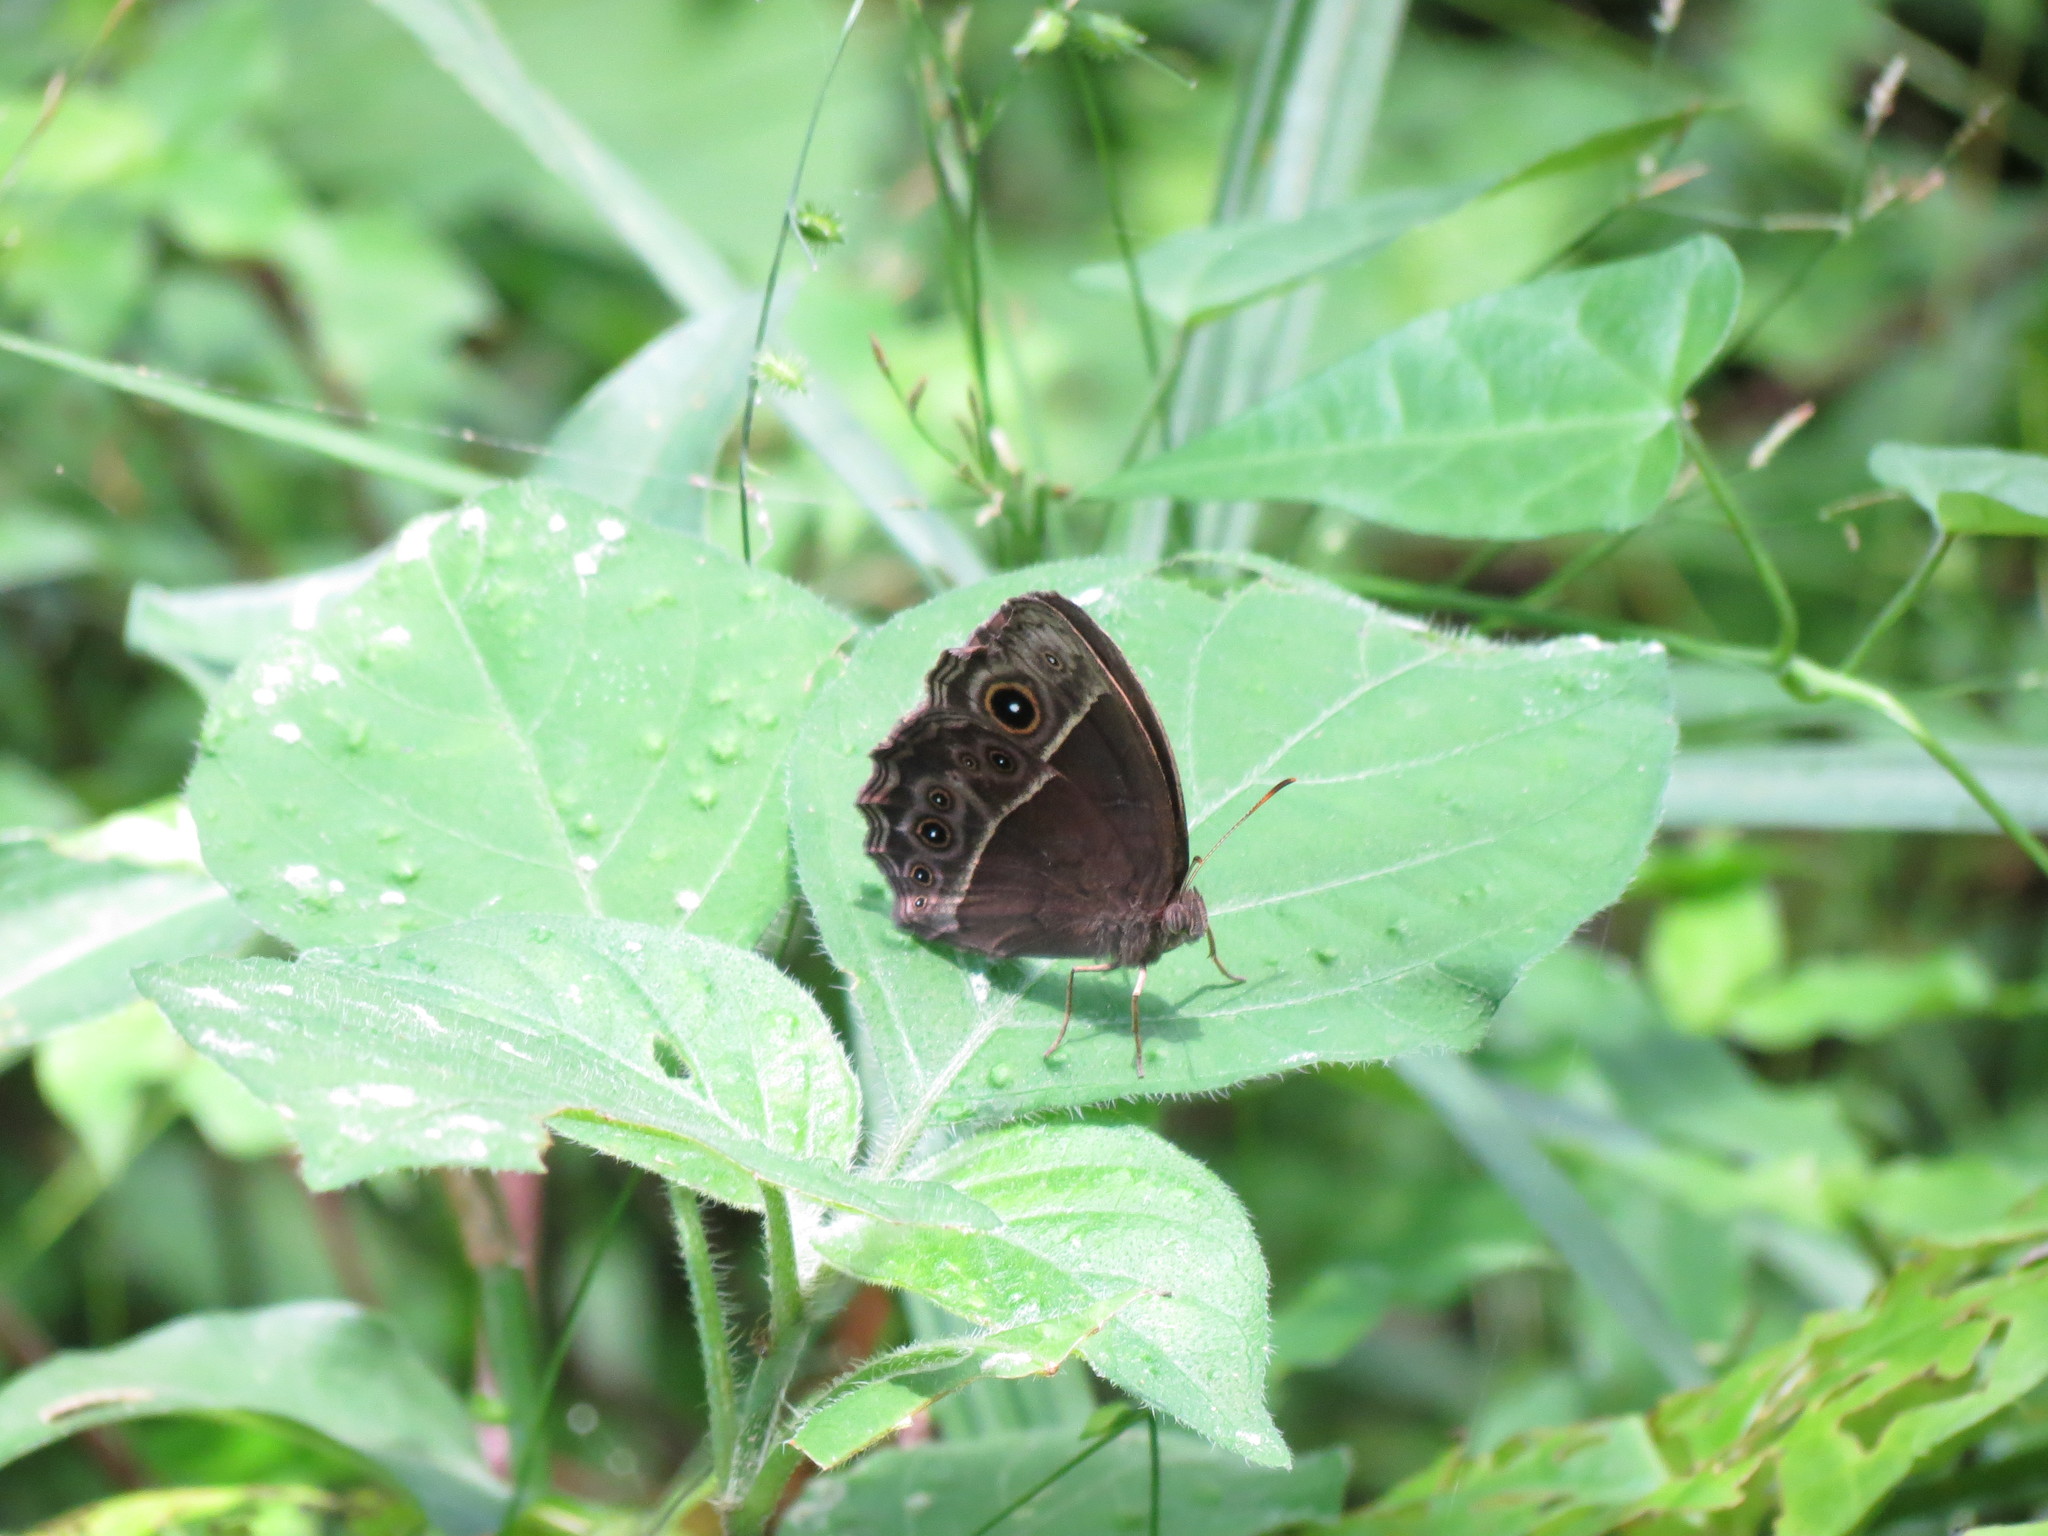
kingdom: Animalia
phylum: Arthropoda
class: Insecta
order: Lepidoptera
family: Nymphalidae
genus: Mycalesis
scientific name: Mycalesis rhacotis
